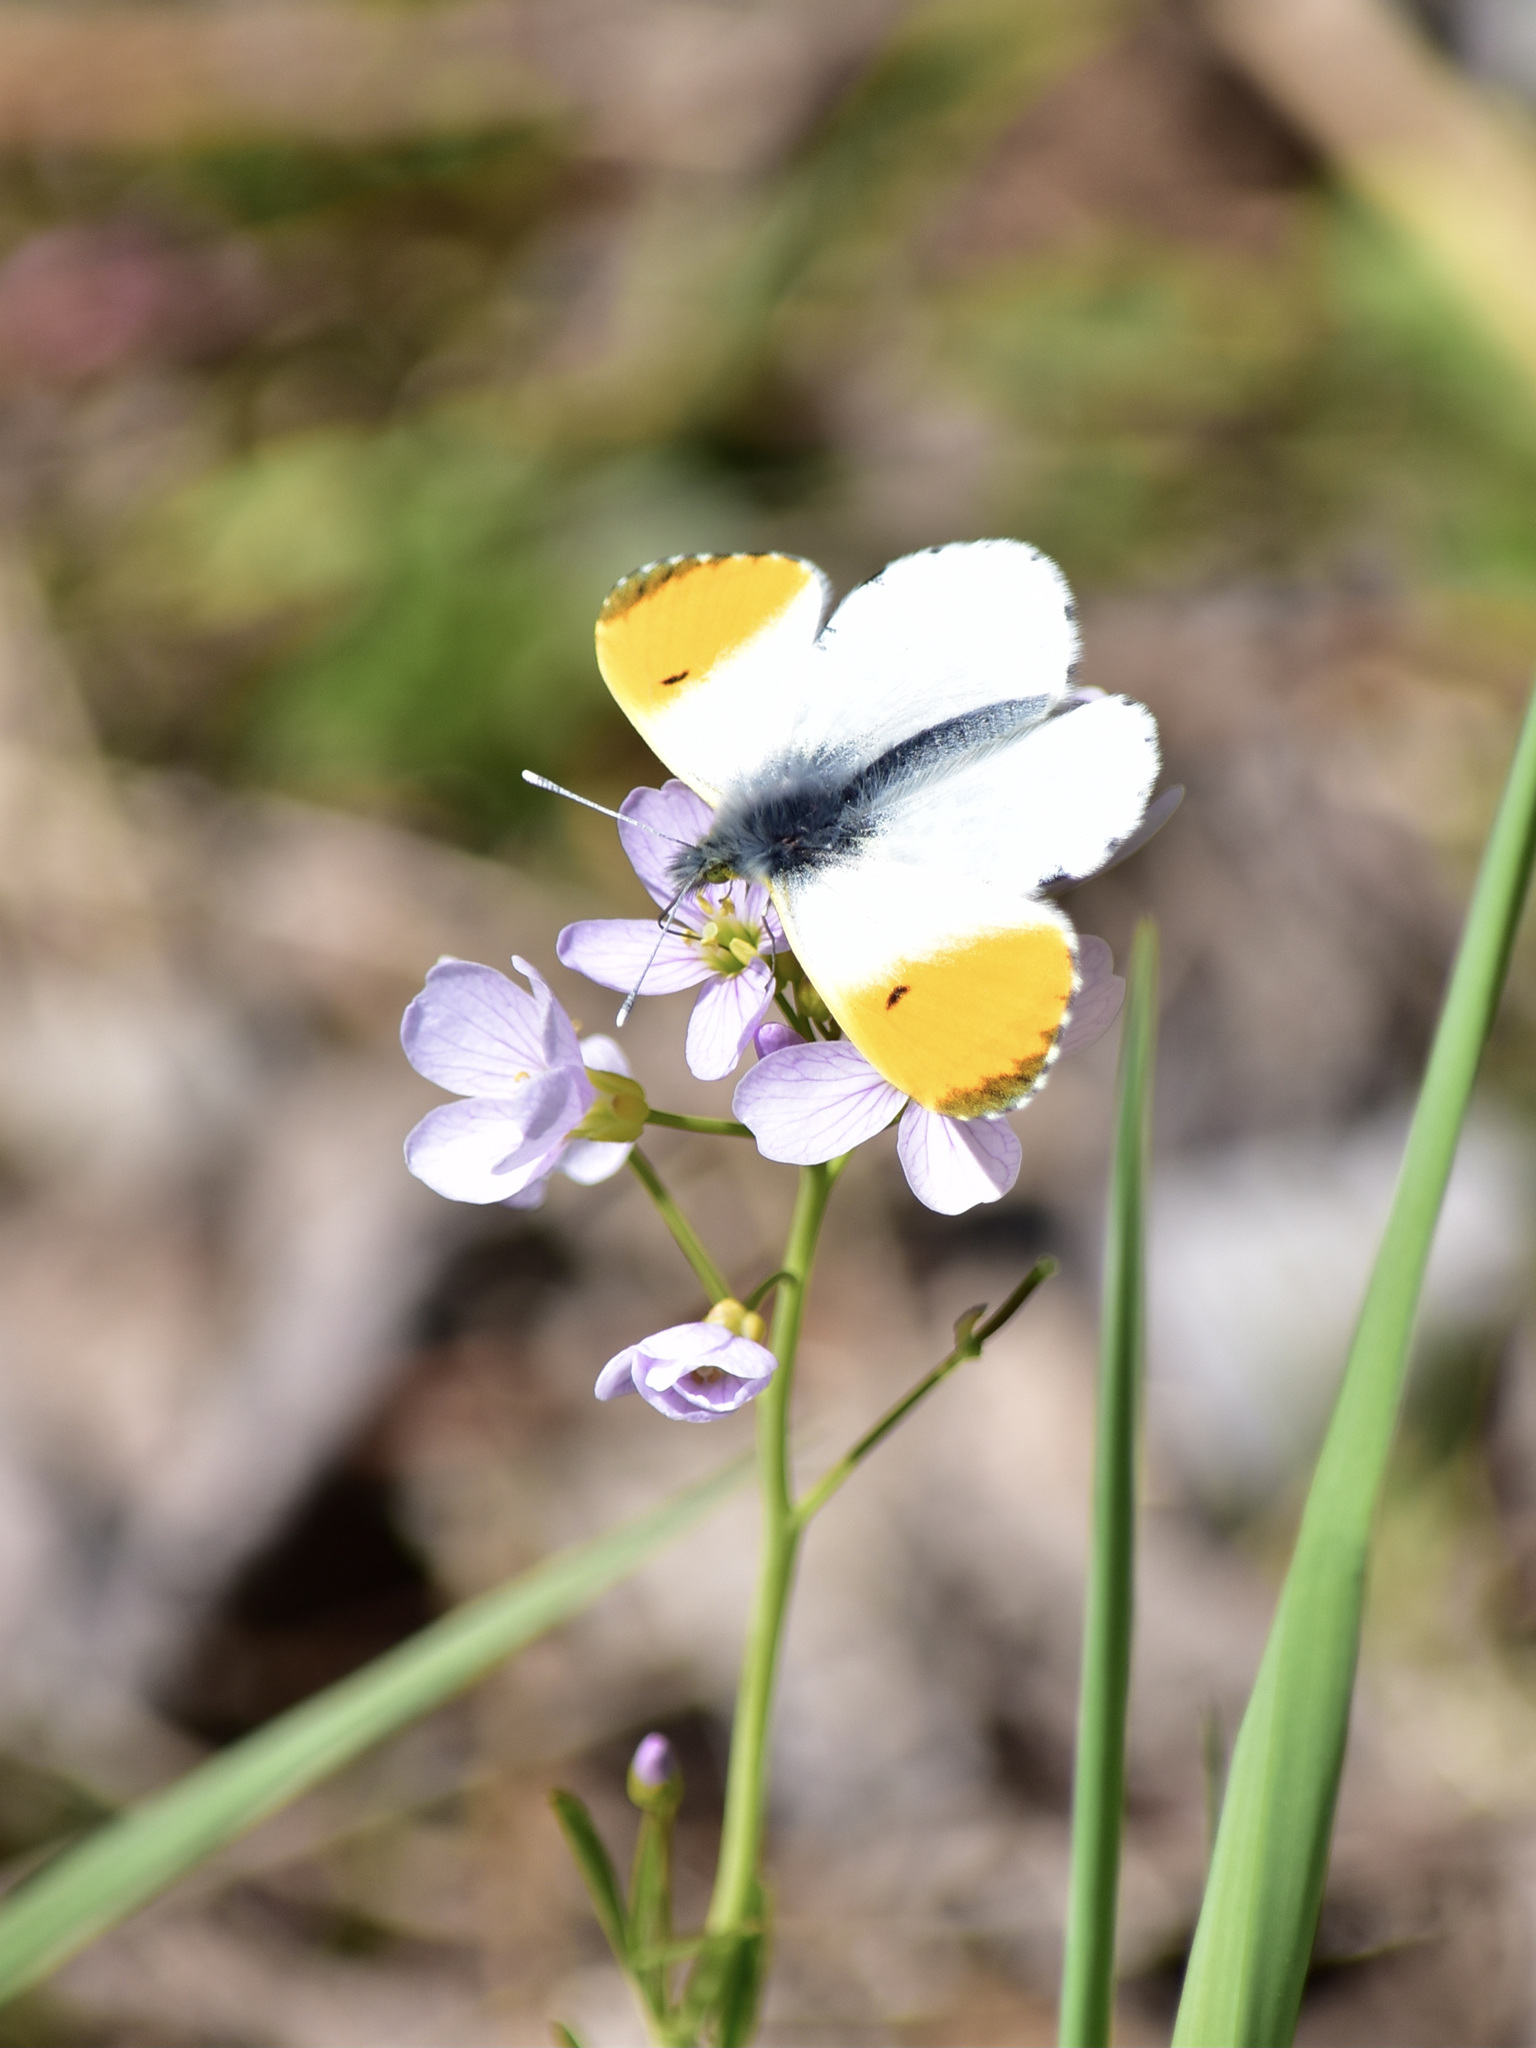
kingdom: Animalia
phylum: Arthropoda
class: Insecta
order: Lepidoptera
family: Pieridae
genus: Anthocharis
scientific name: Anthocharis cardamines
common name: Orange-tip
